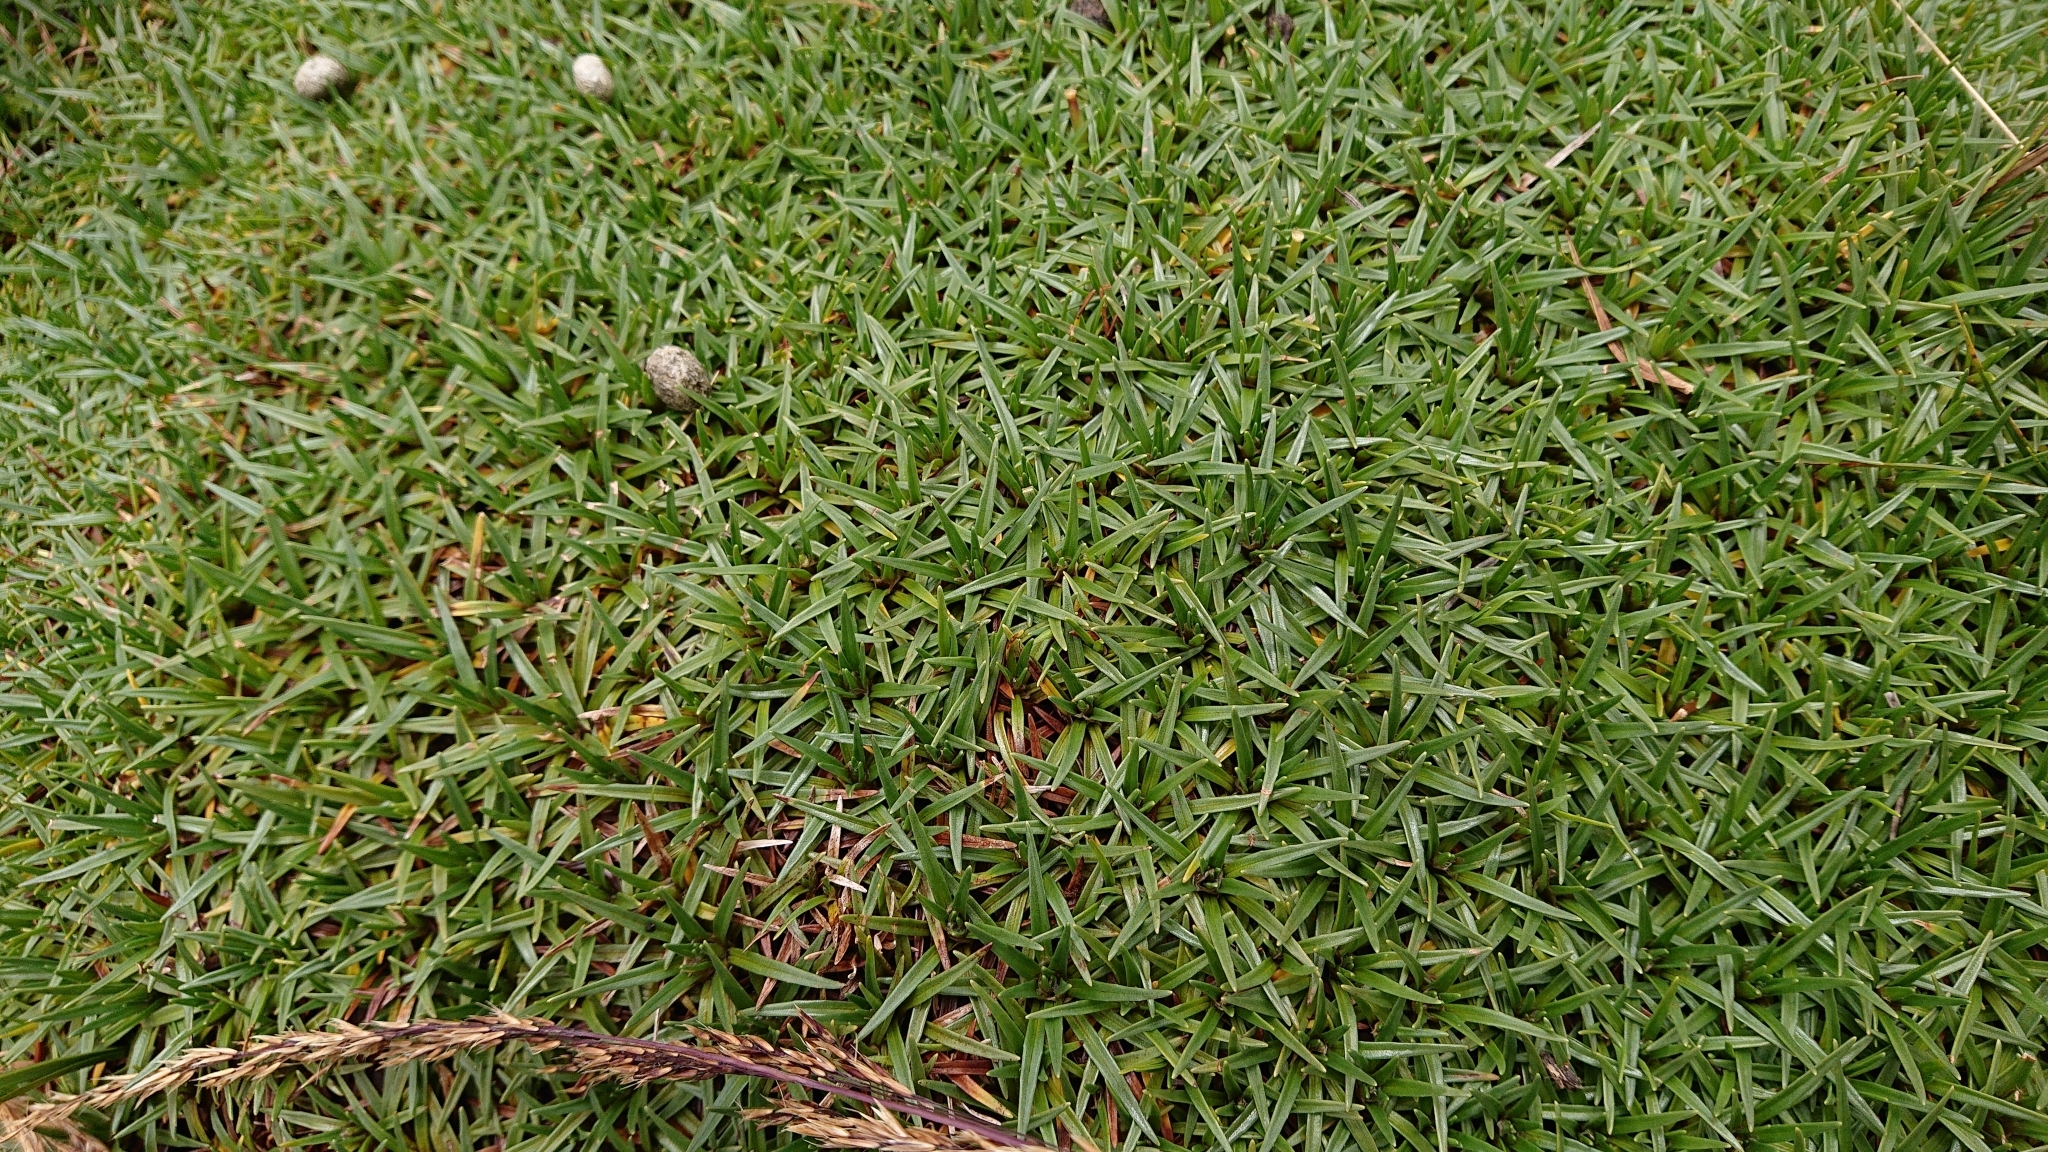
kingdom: Plantae
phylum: Tracheophyta
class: Magnoliopsida
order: Lamiales
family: Plantaginaceae
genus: Plantago
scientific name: Plantago tubulosa
